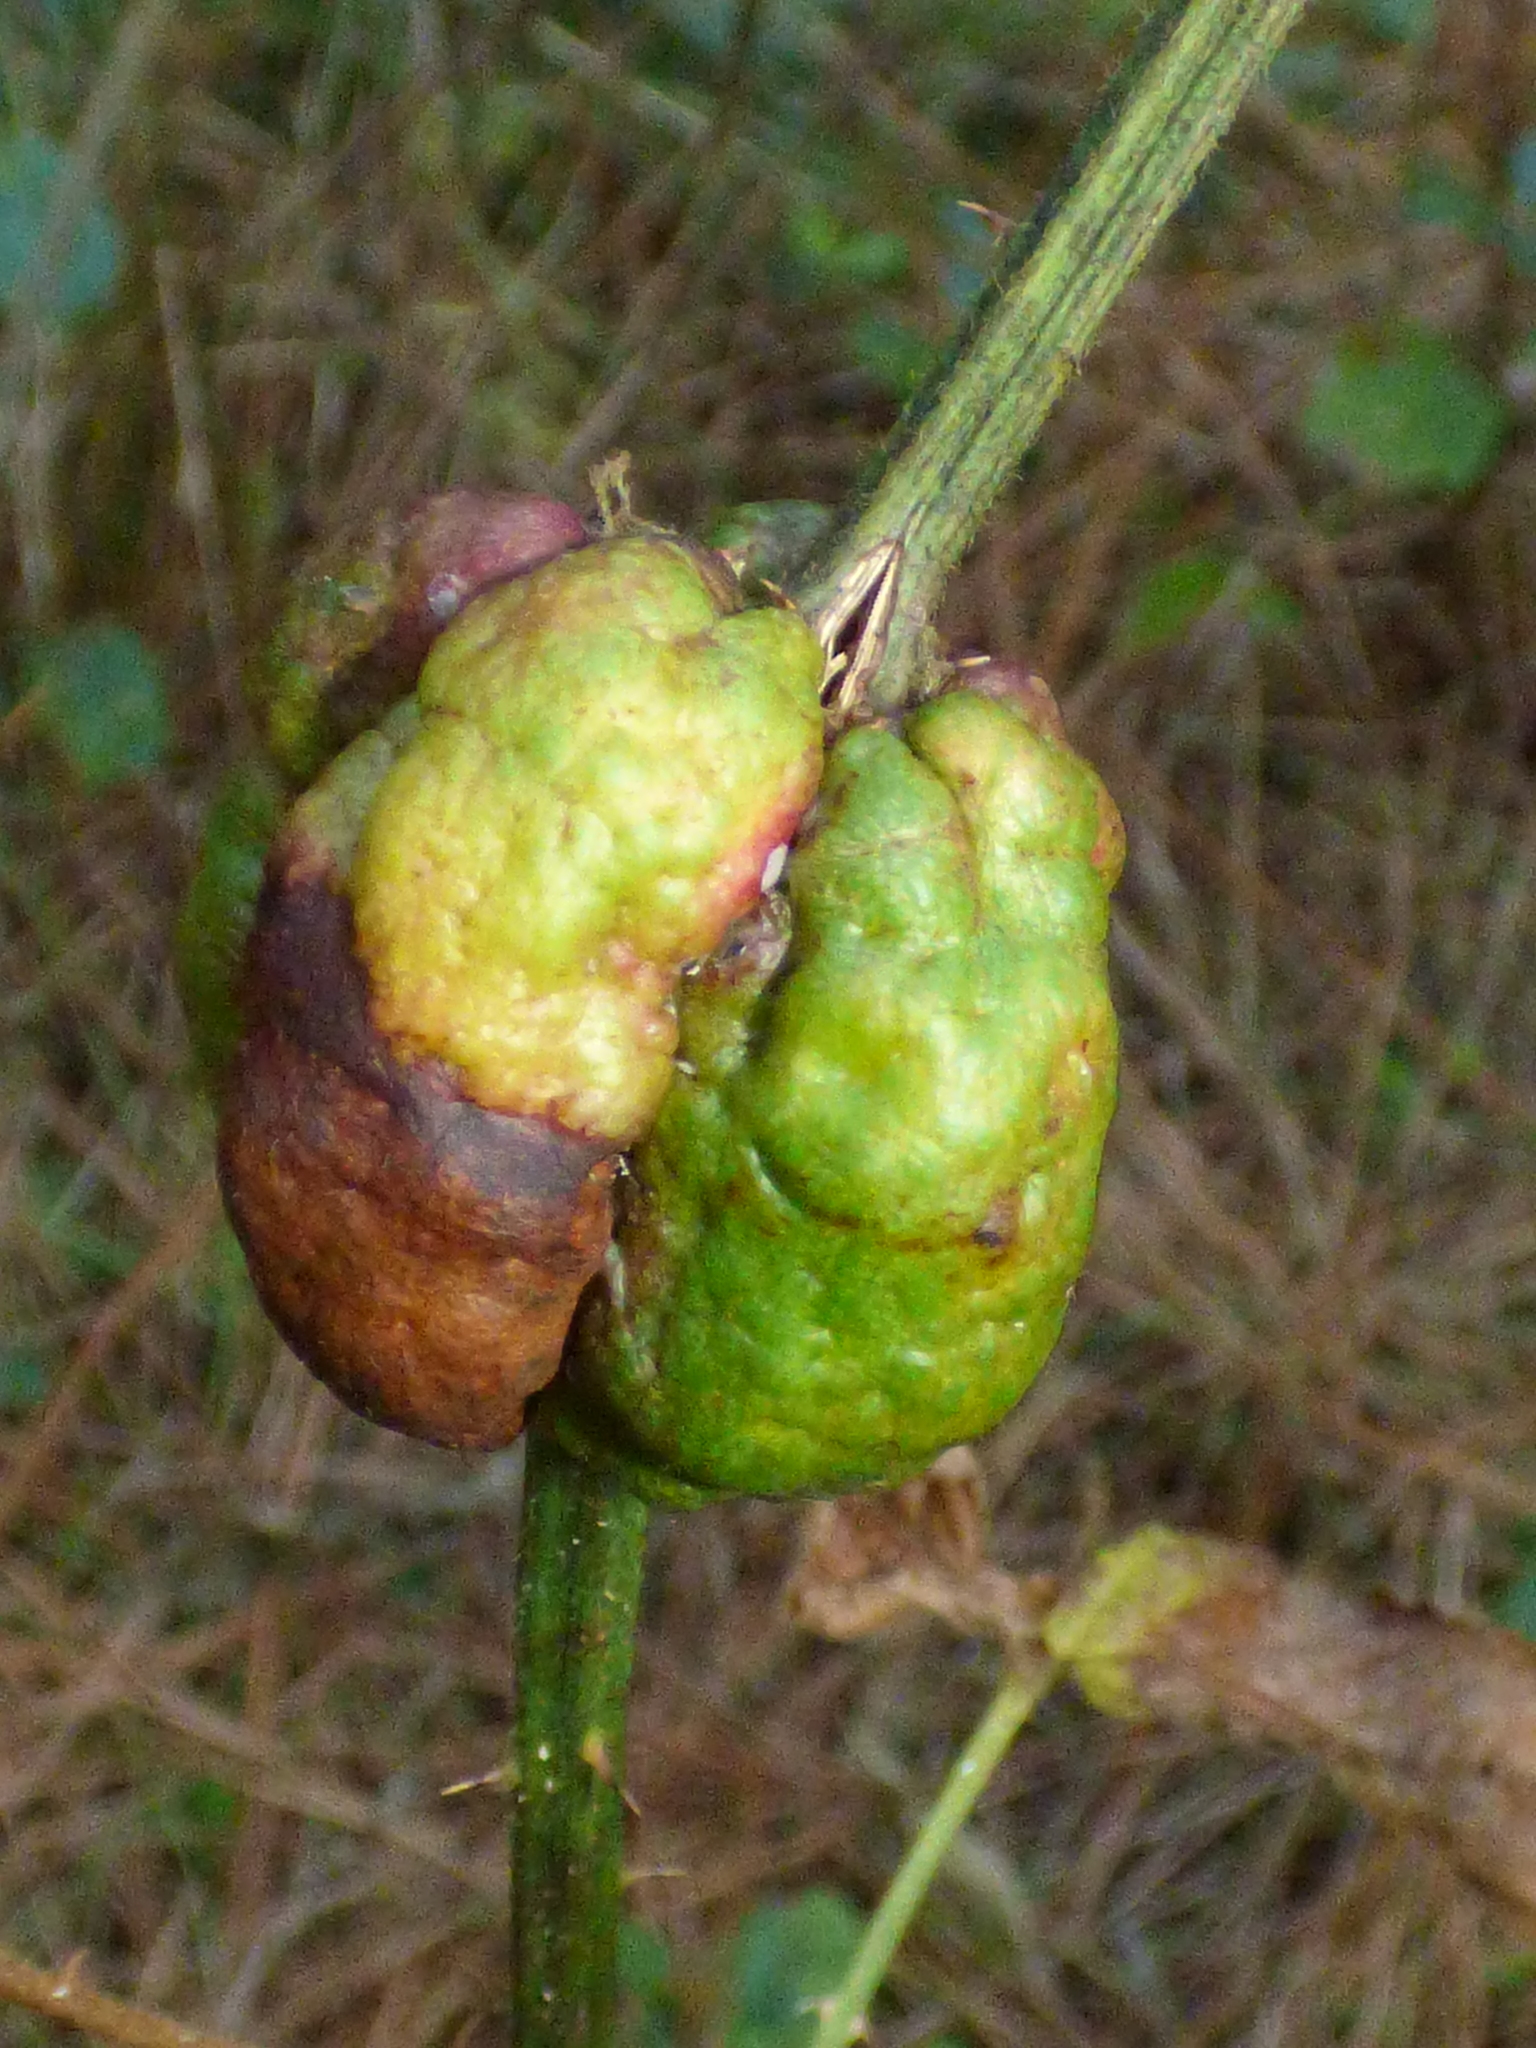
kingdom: Animalia
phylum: Arthropoda
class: Insecta
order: Hymenoptera
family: Cynipidae
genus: Diastrophus
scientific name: Diastrophus
